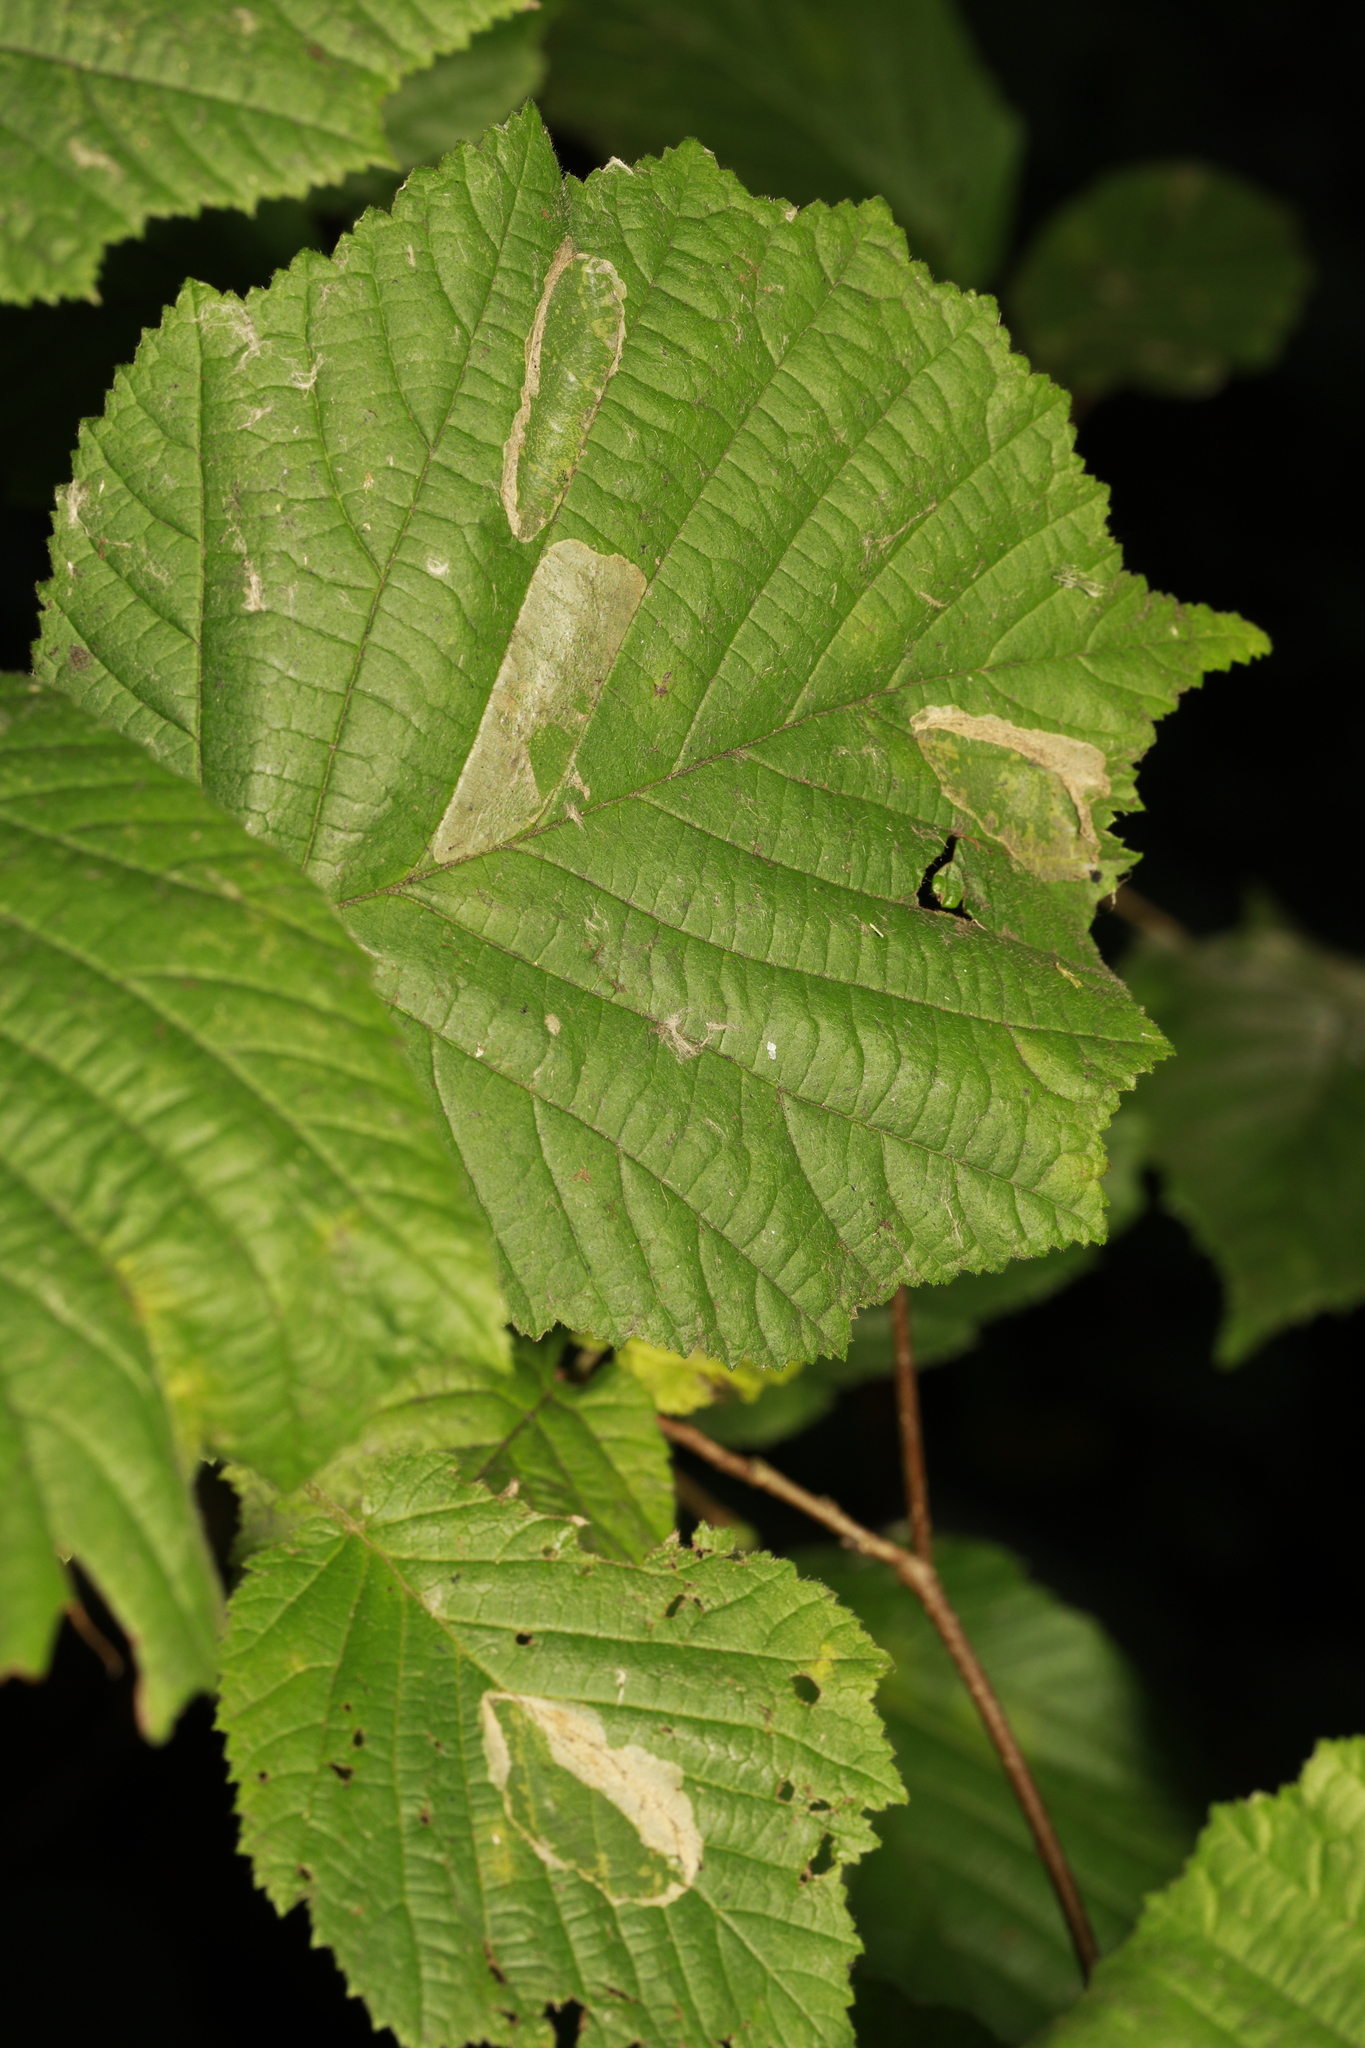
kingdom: Animalia
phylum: Arthropoda
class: Insecta
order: Lepidoptera
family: Gracillariidae
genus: Phyllonorycter
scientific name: Phyllonorycter coryli
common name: Nut-leaf blister moth
